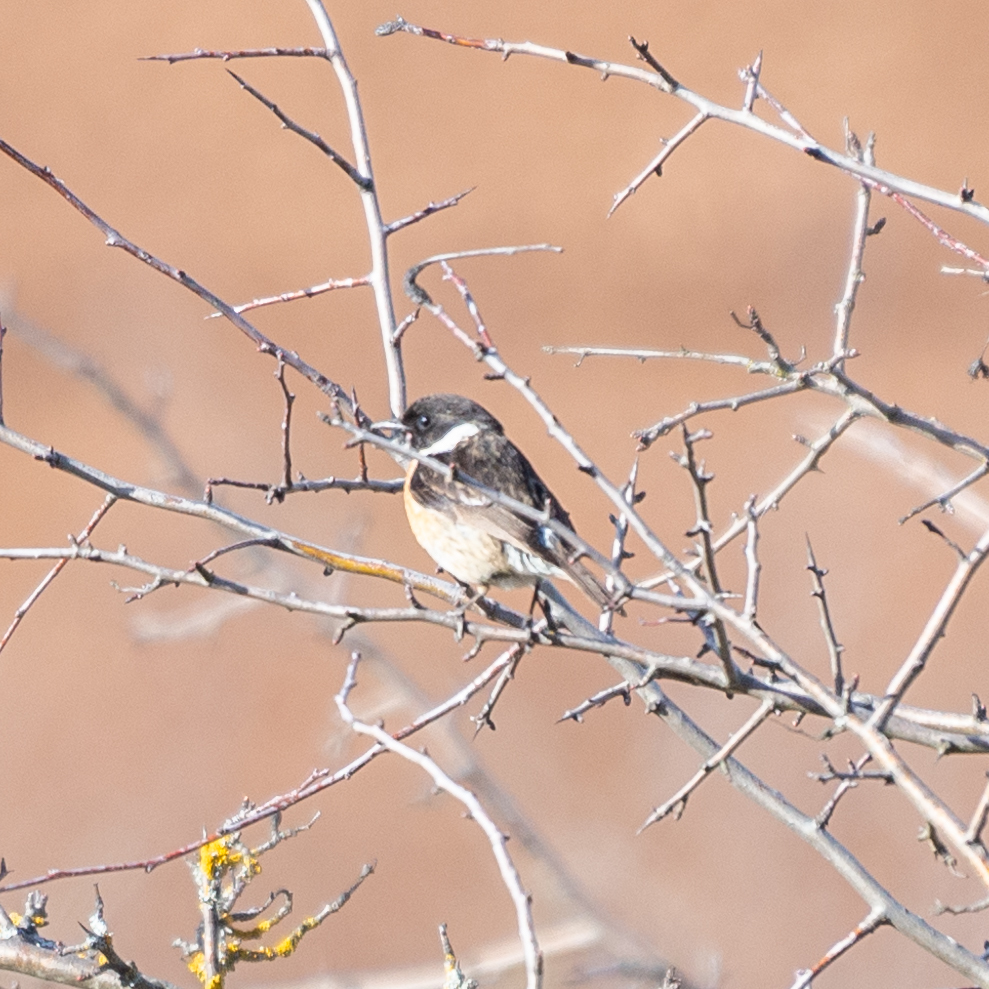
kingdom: Animalia
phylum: Chordata
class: Aves
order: Passeriformes
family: Muscicapidae
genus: Saxicola
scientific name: Saxicola rubicola
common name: European stonechat
